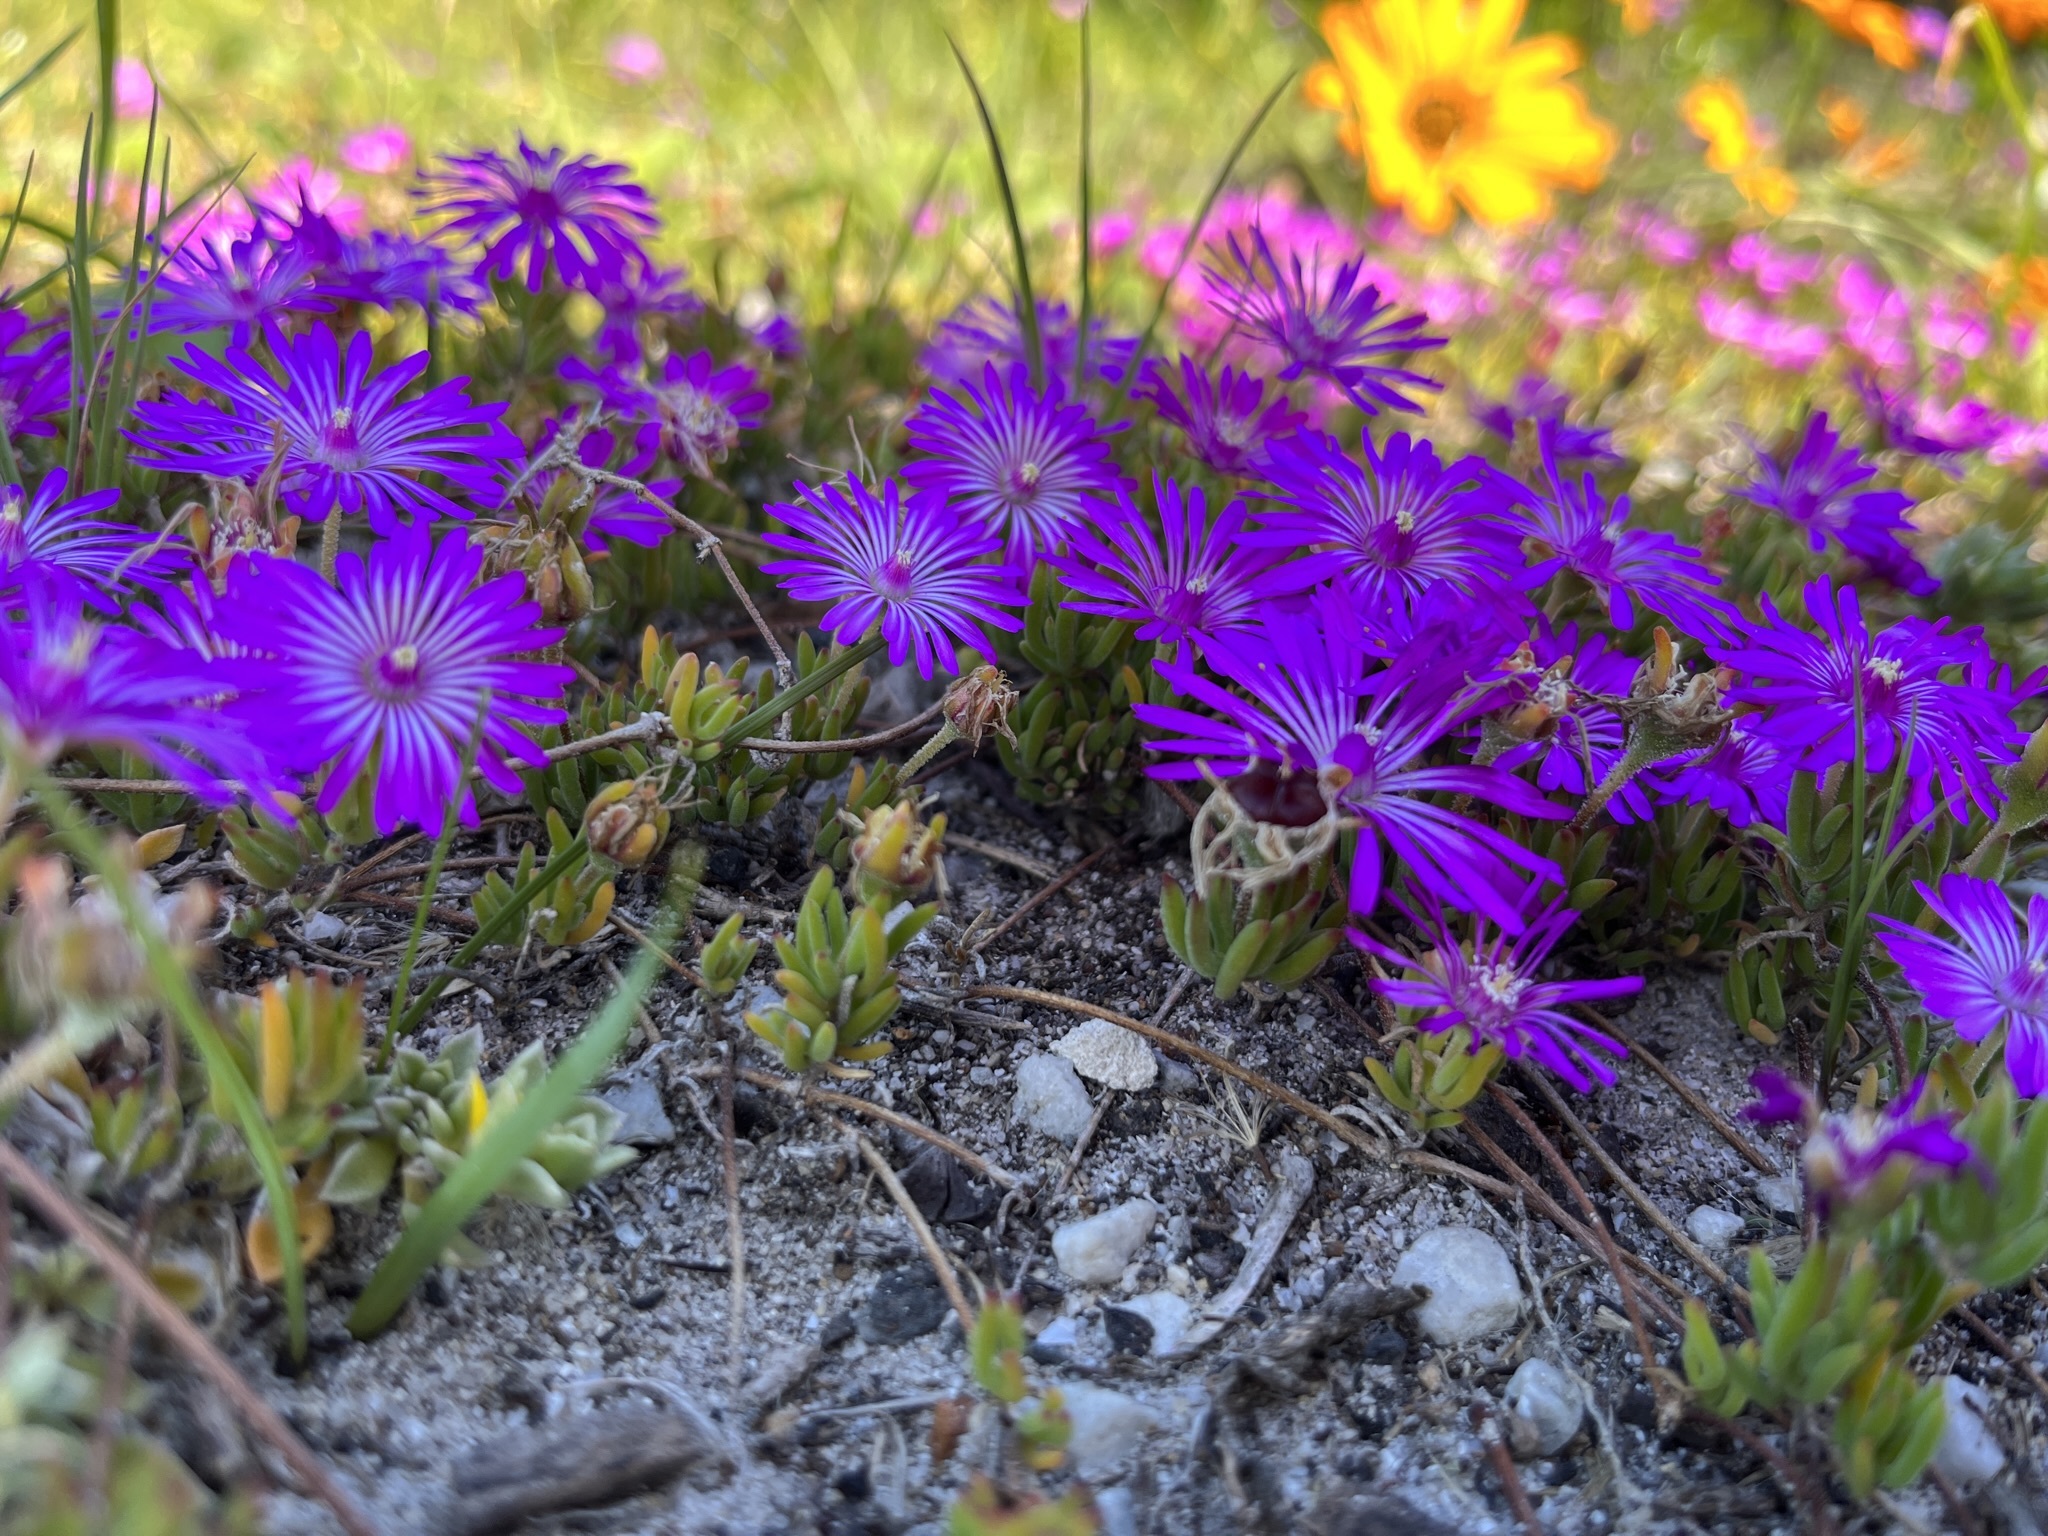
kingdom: Plantae
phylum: Tracheophyta
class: Magnoliopsida
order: Caryophyllales
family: Aizoaceae
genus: Drosanthemum
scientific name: Drosanthemum calcareum
